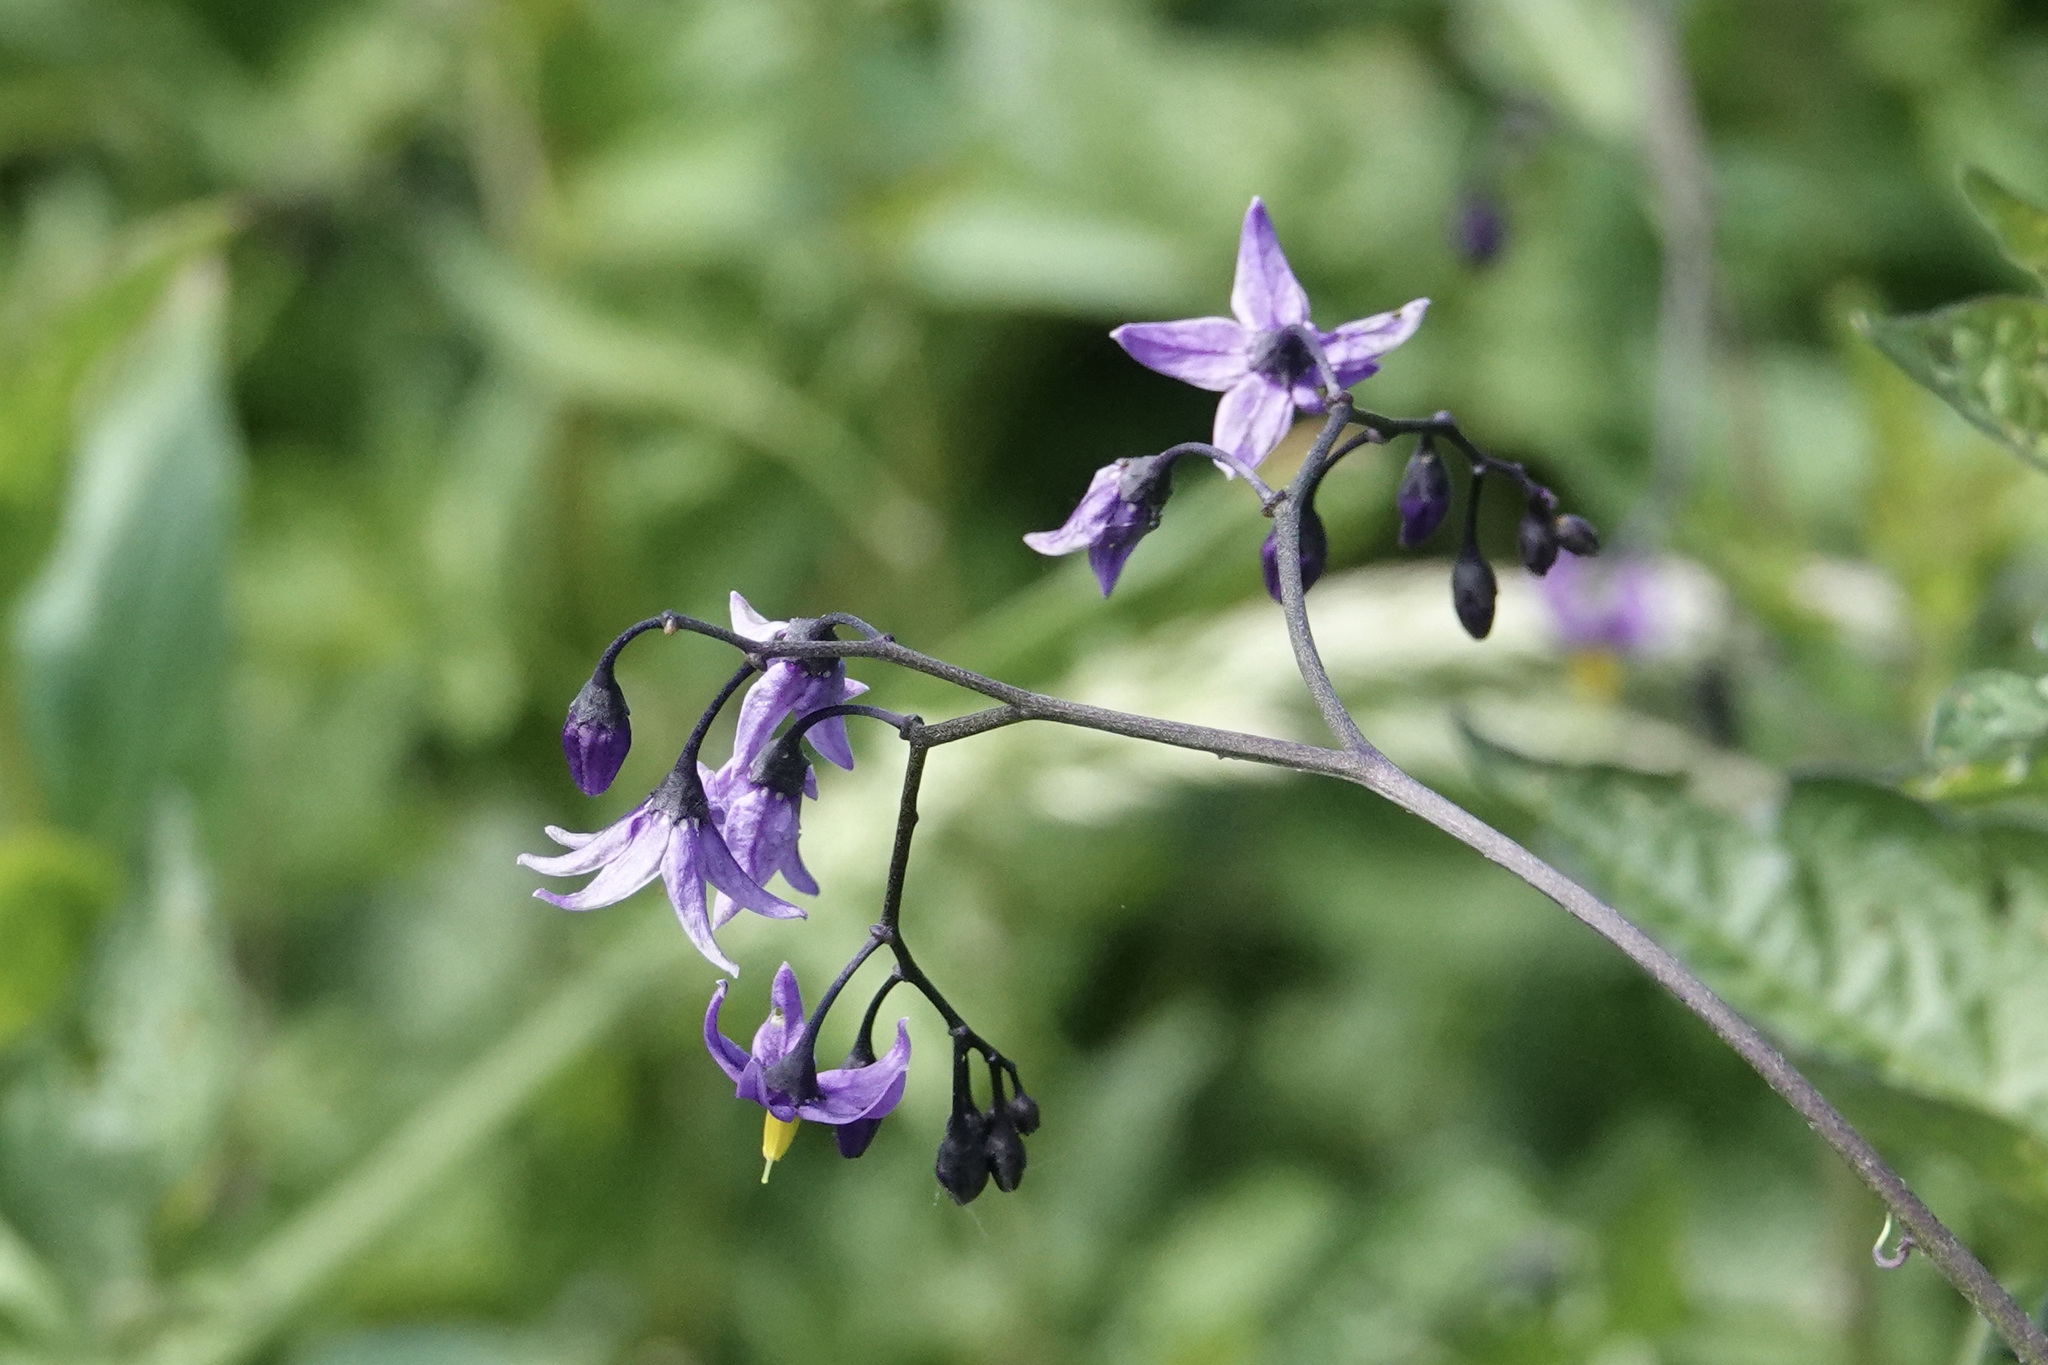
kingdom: Plantae
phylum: Tracheophyta
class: Magnoliopsida
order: Solanales
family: Solanaceae
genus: Solanum
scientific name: Solanum dulcamara
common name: Climbing nightshade
